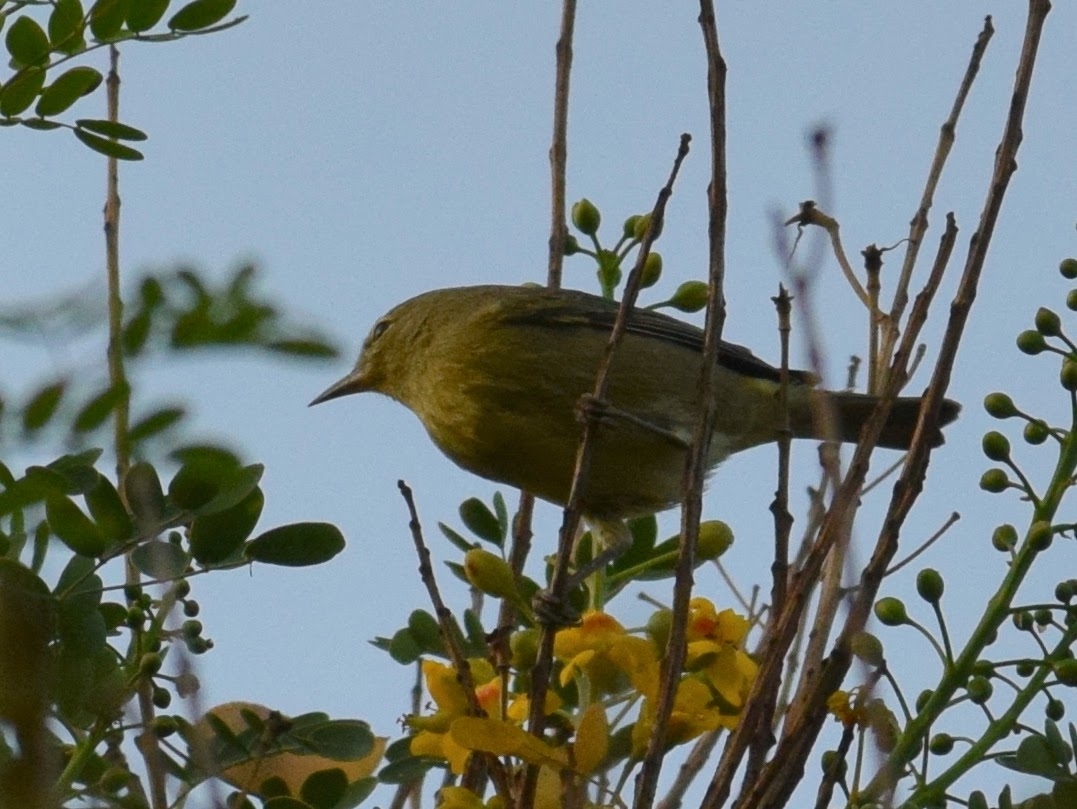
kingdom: Animalia
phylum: Chordata
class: Aves
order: Passeriformes
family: Parulidae
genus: Leiothlypis
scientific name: Leiothlypis celata
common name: Orange-crowned warbler
